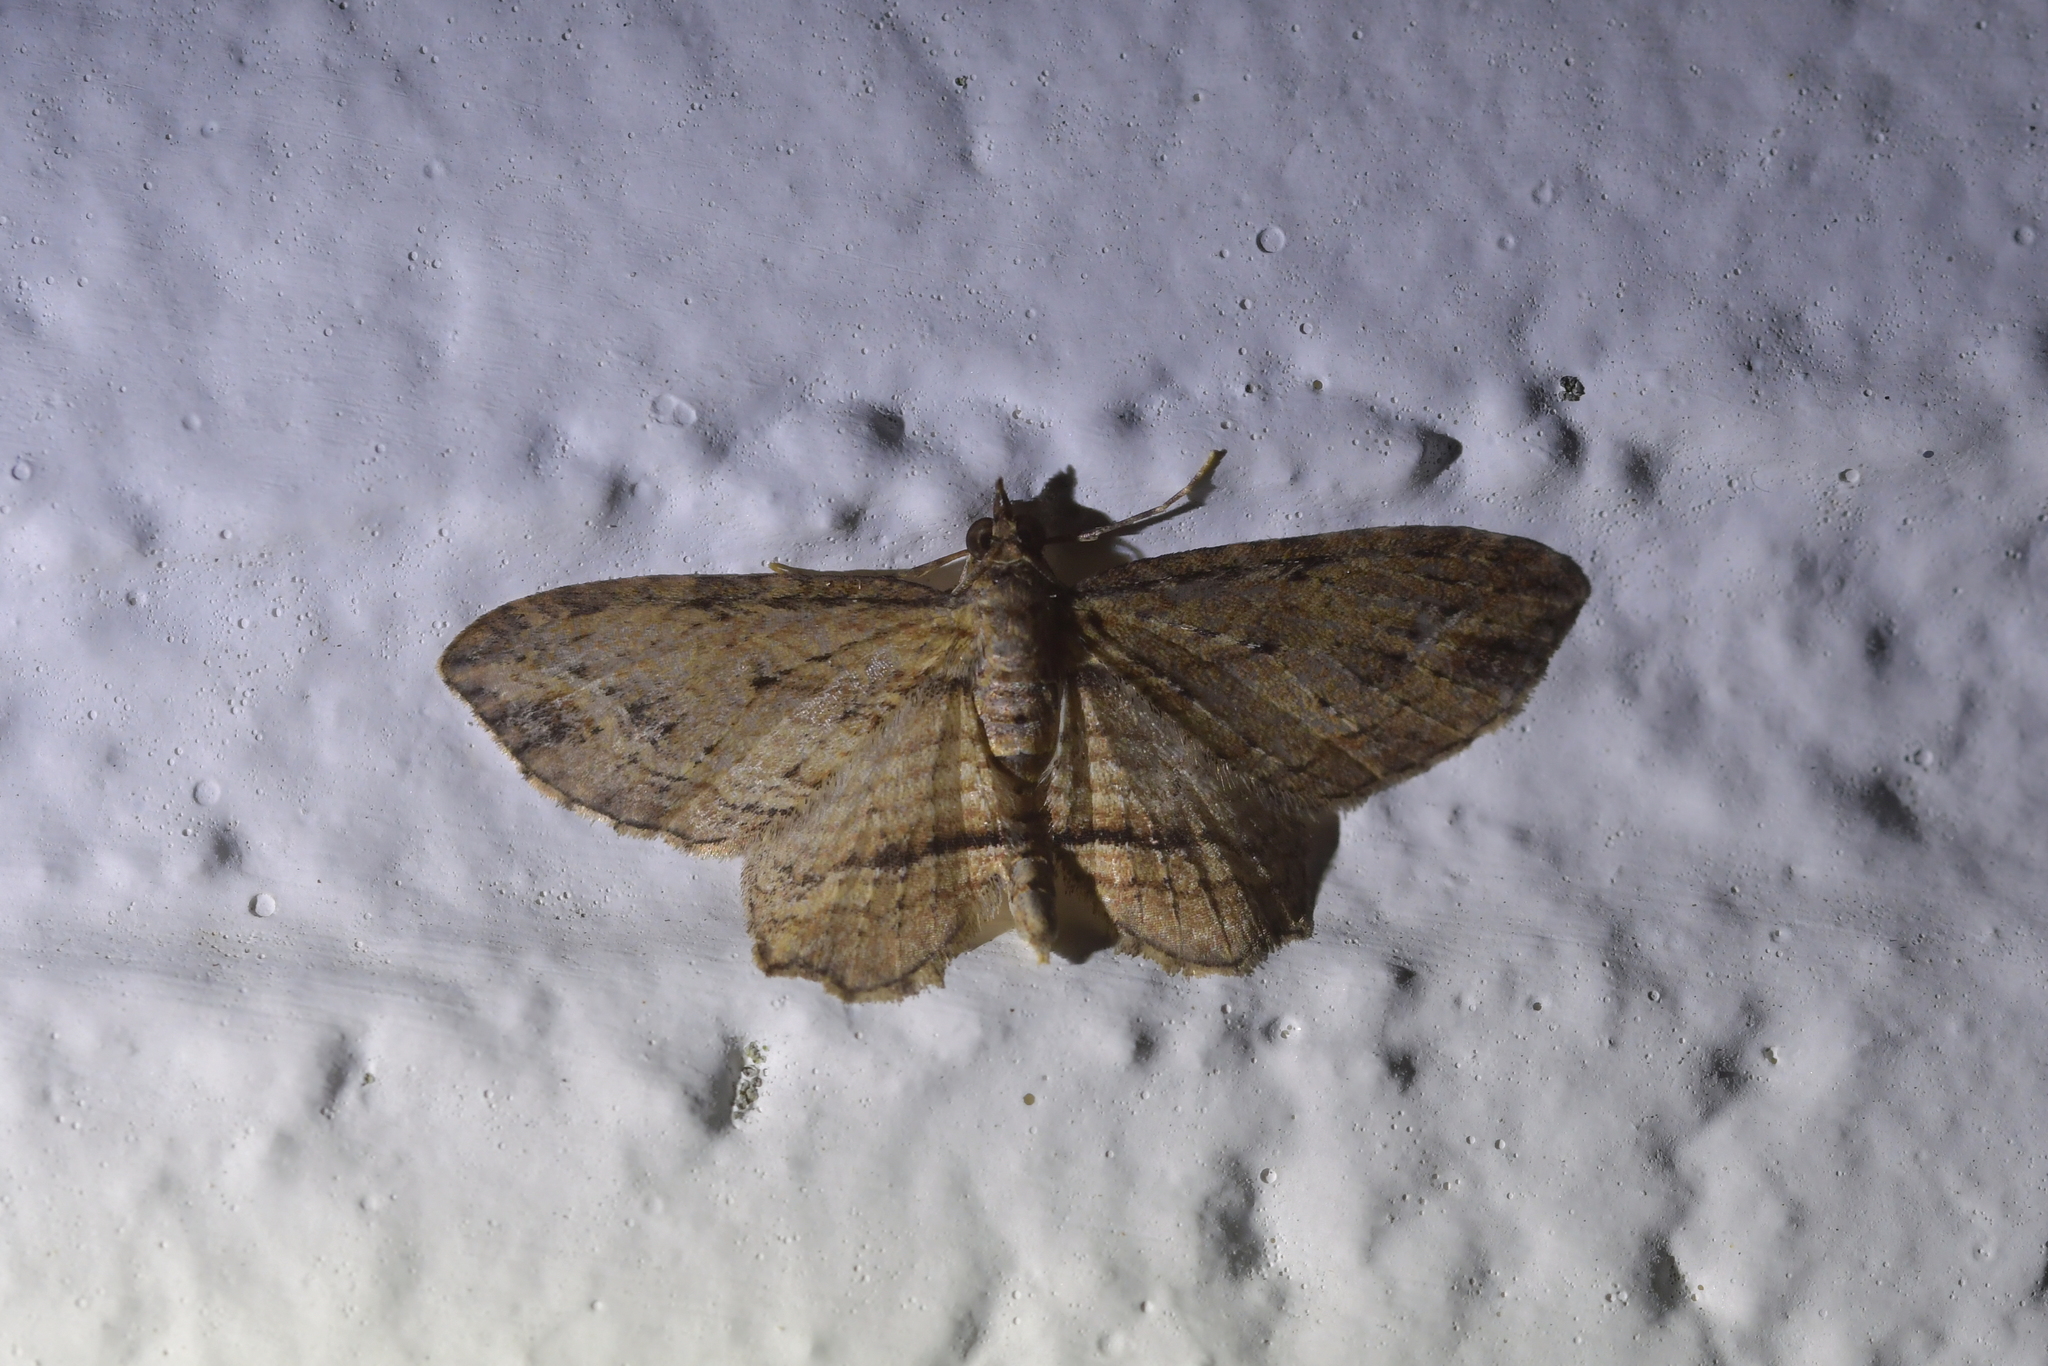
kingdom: Animalia
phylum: Arthropoda
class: Insecta
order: Lepidoptera
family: Geometridae
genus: Chloroclystis
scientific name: Chloroclystis filata
